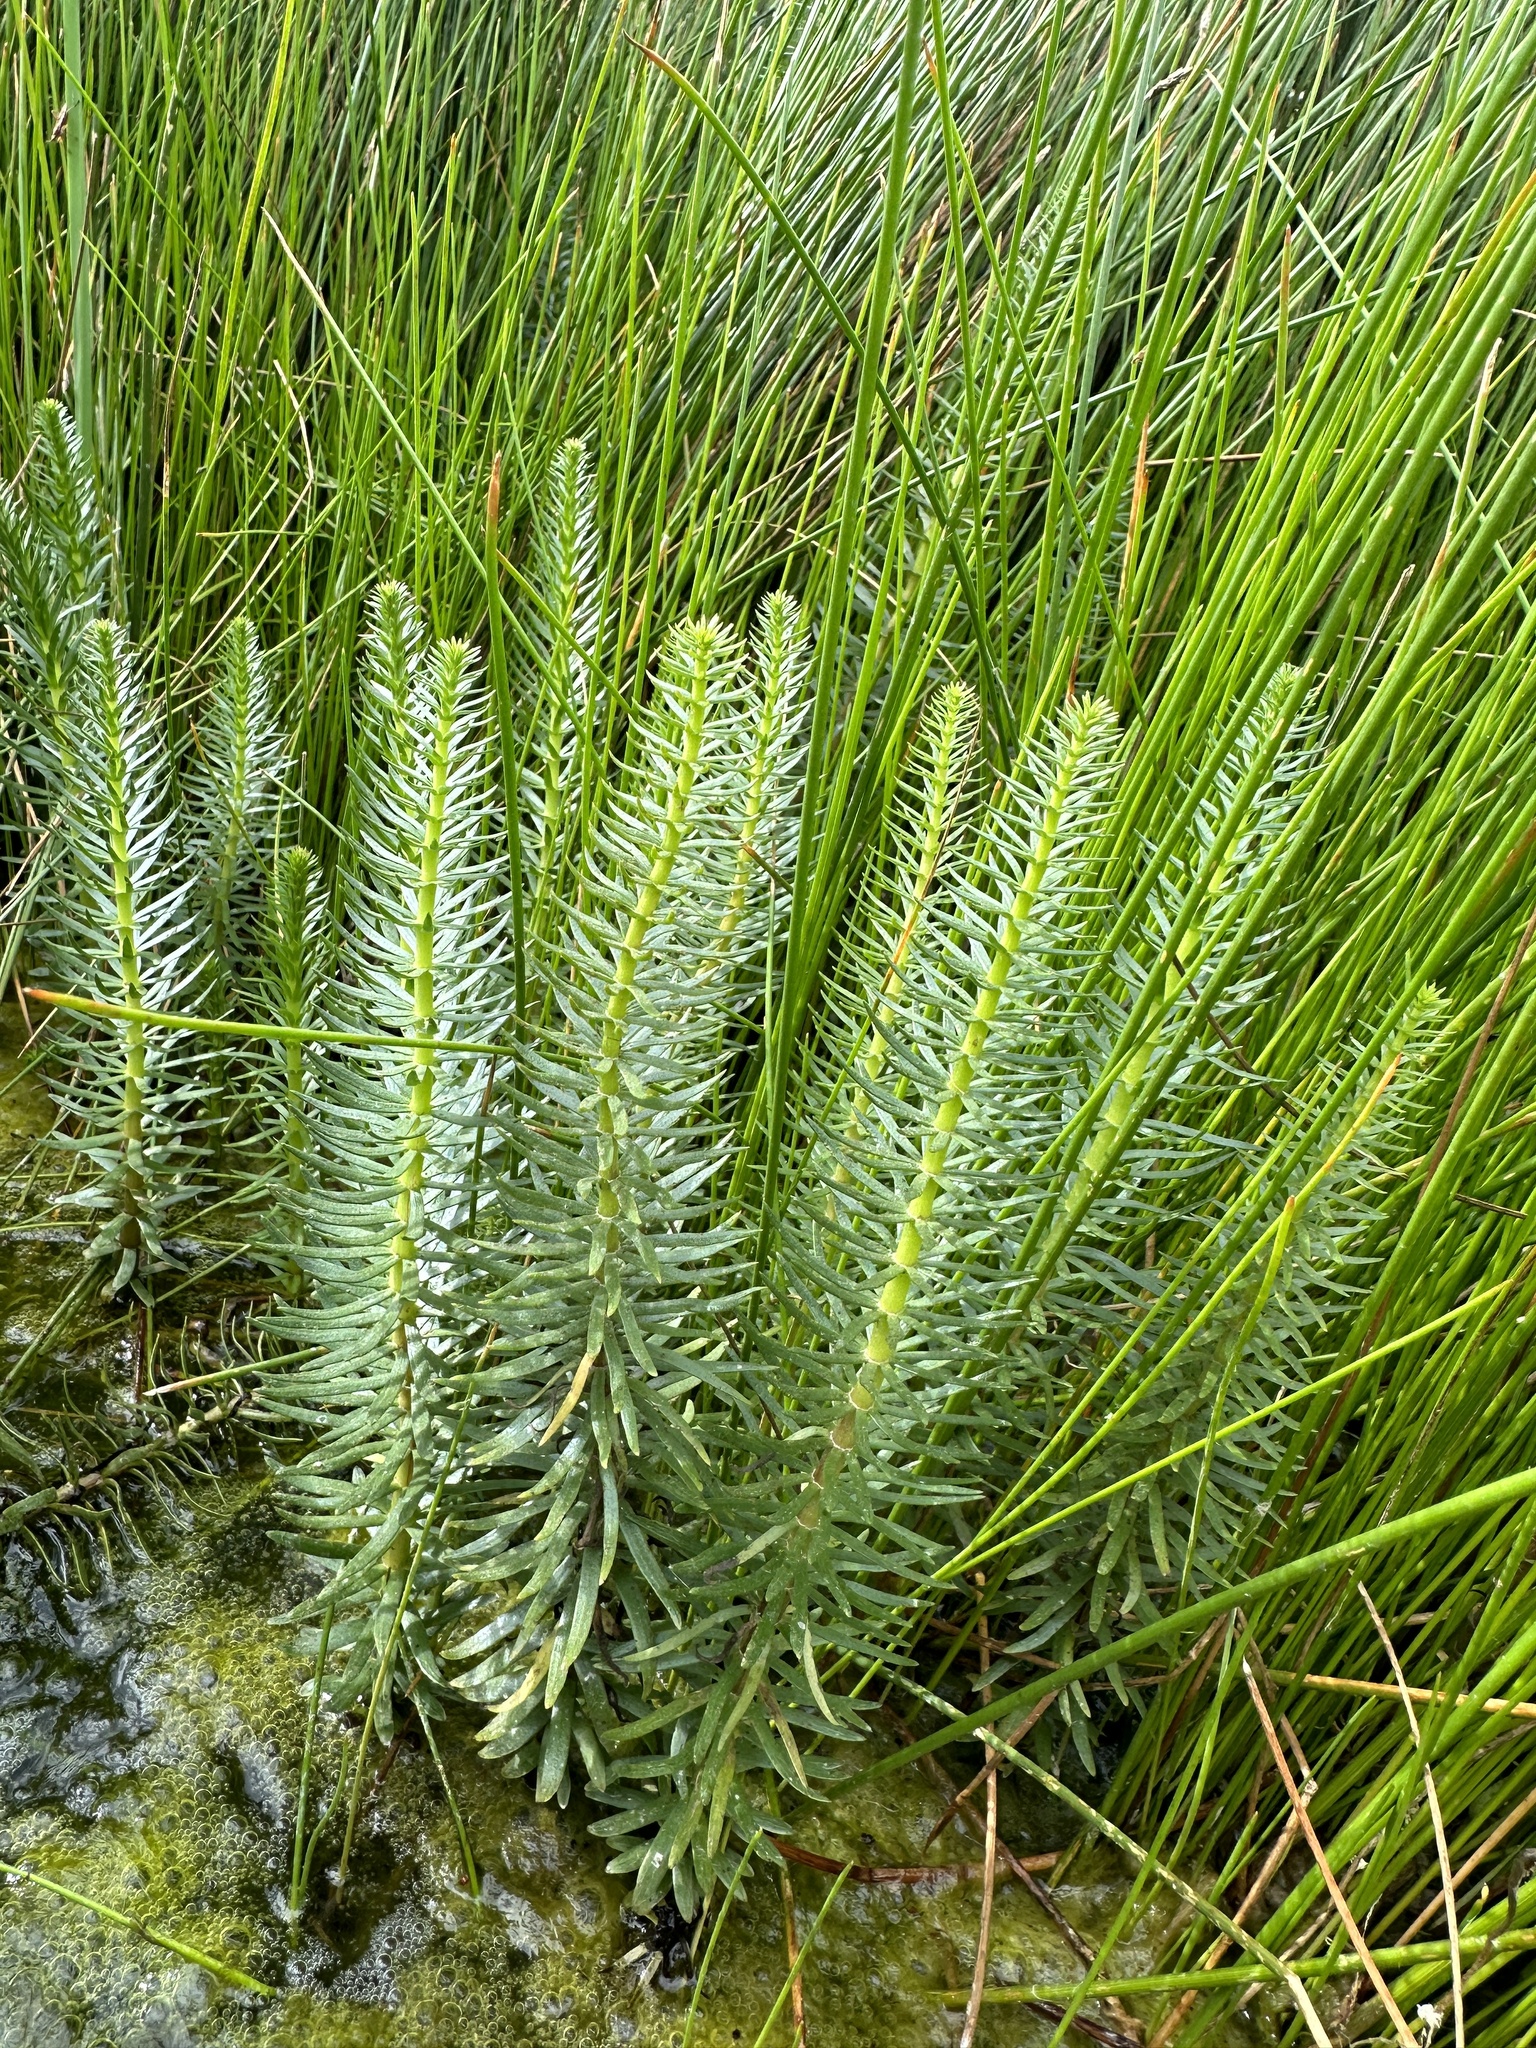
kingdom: Plantae
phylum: Tracheophyta
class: Magnoliopsida
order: Lamiales
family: Plantaginaceae
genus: Hippuris
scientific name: Hippuris vulgaris
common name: Mare's-tail
